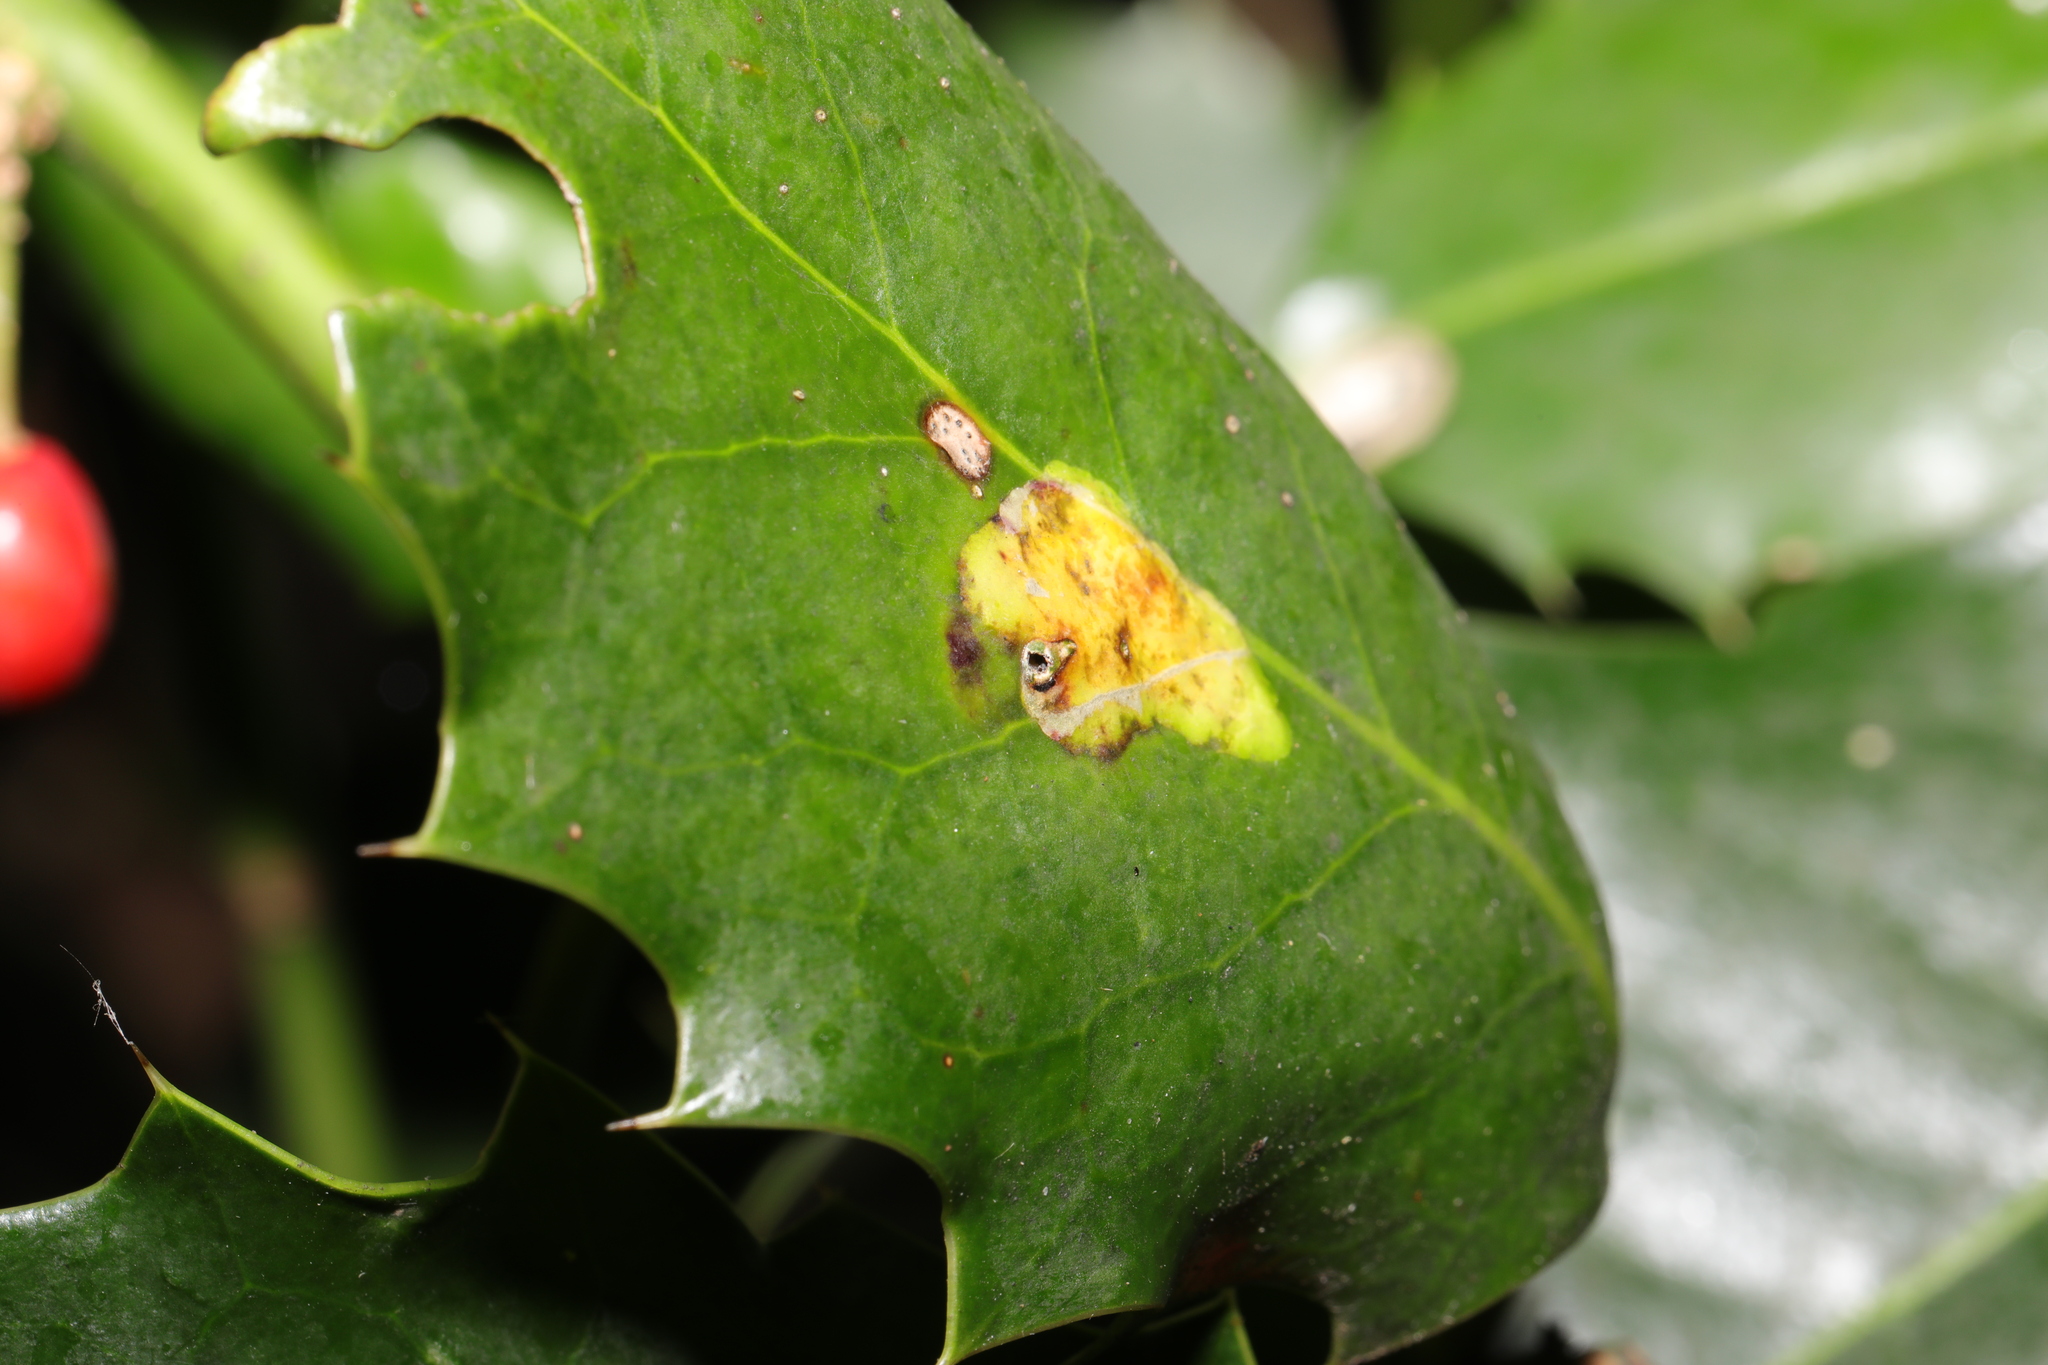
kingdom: Animalia
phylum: Arthropoda
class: Insecta
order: Diptera
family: Agromyzidae
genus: Phytomyza
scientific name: Phytomyza ilicis
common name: Holly leafminer
